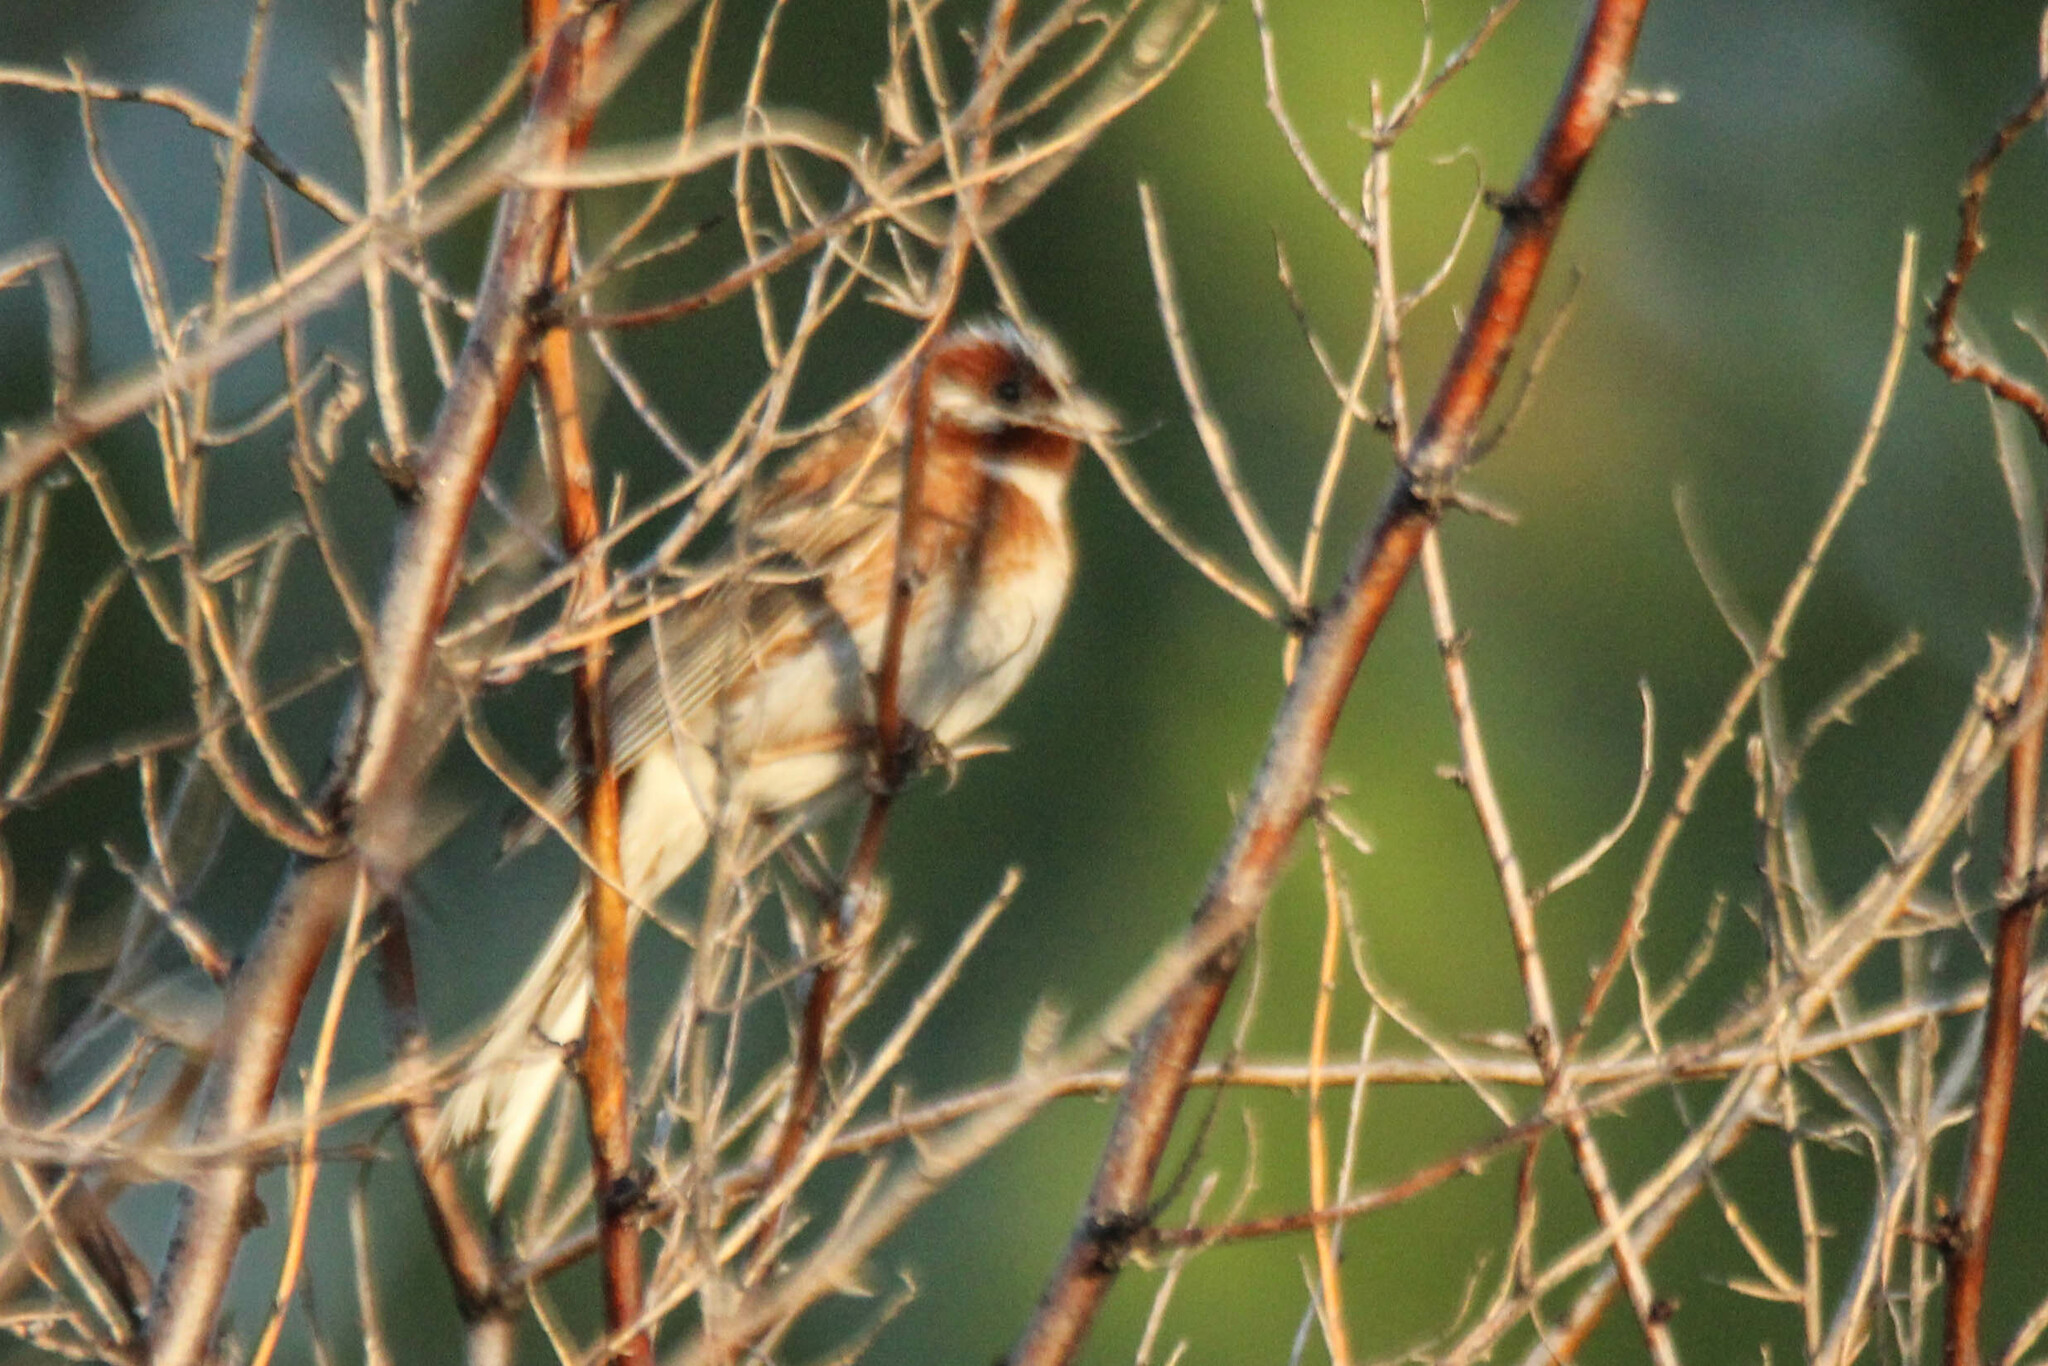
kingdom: Animalia
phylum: Chordata
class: Aves
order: Passeriformes
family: Emberizidae
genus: Emberiza
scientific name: Emberiza leucocephalos
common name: Pine bunting
